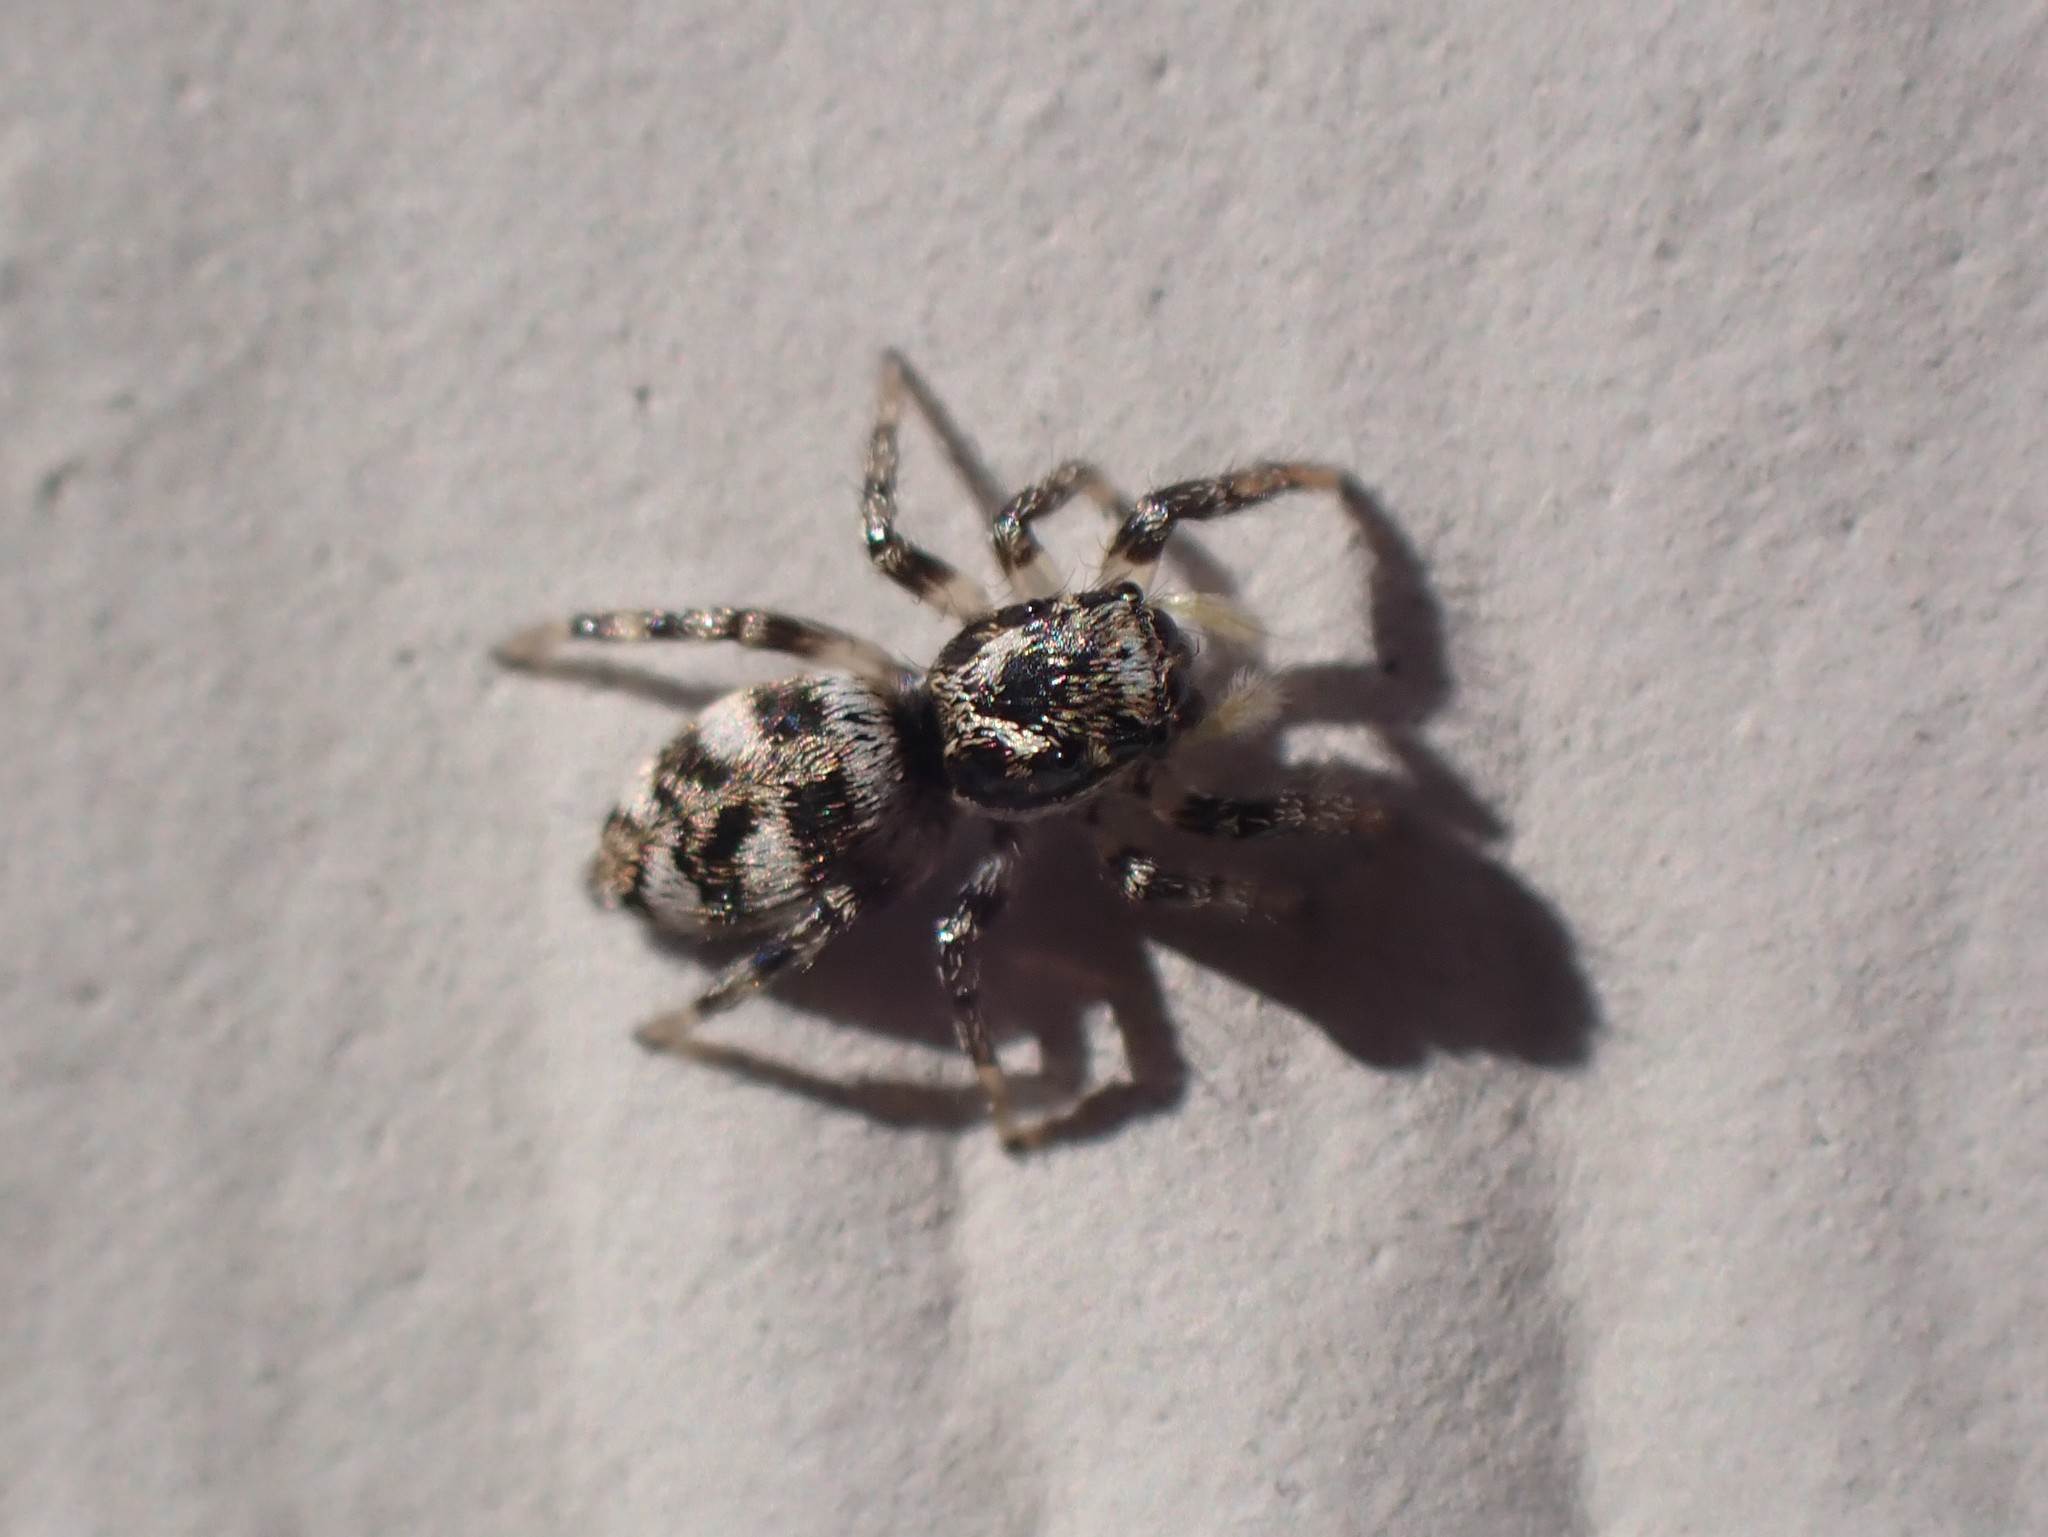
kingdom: Animalia
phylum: Arthropoda
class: Arachnida
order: Araneae
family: Salticidae
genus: Salticus
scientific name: Salticus scenicus
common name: Zebra jumper
